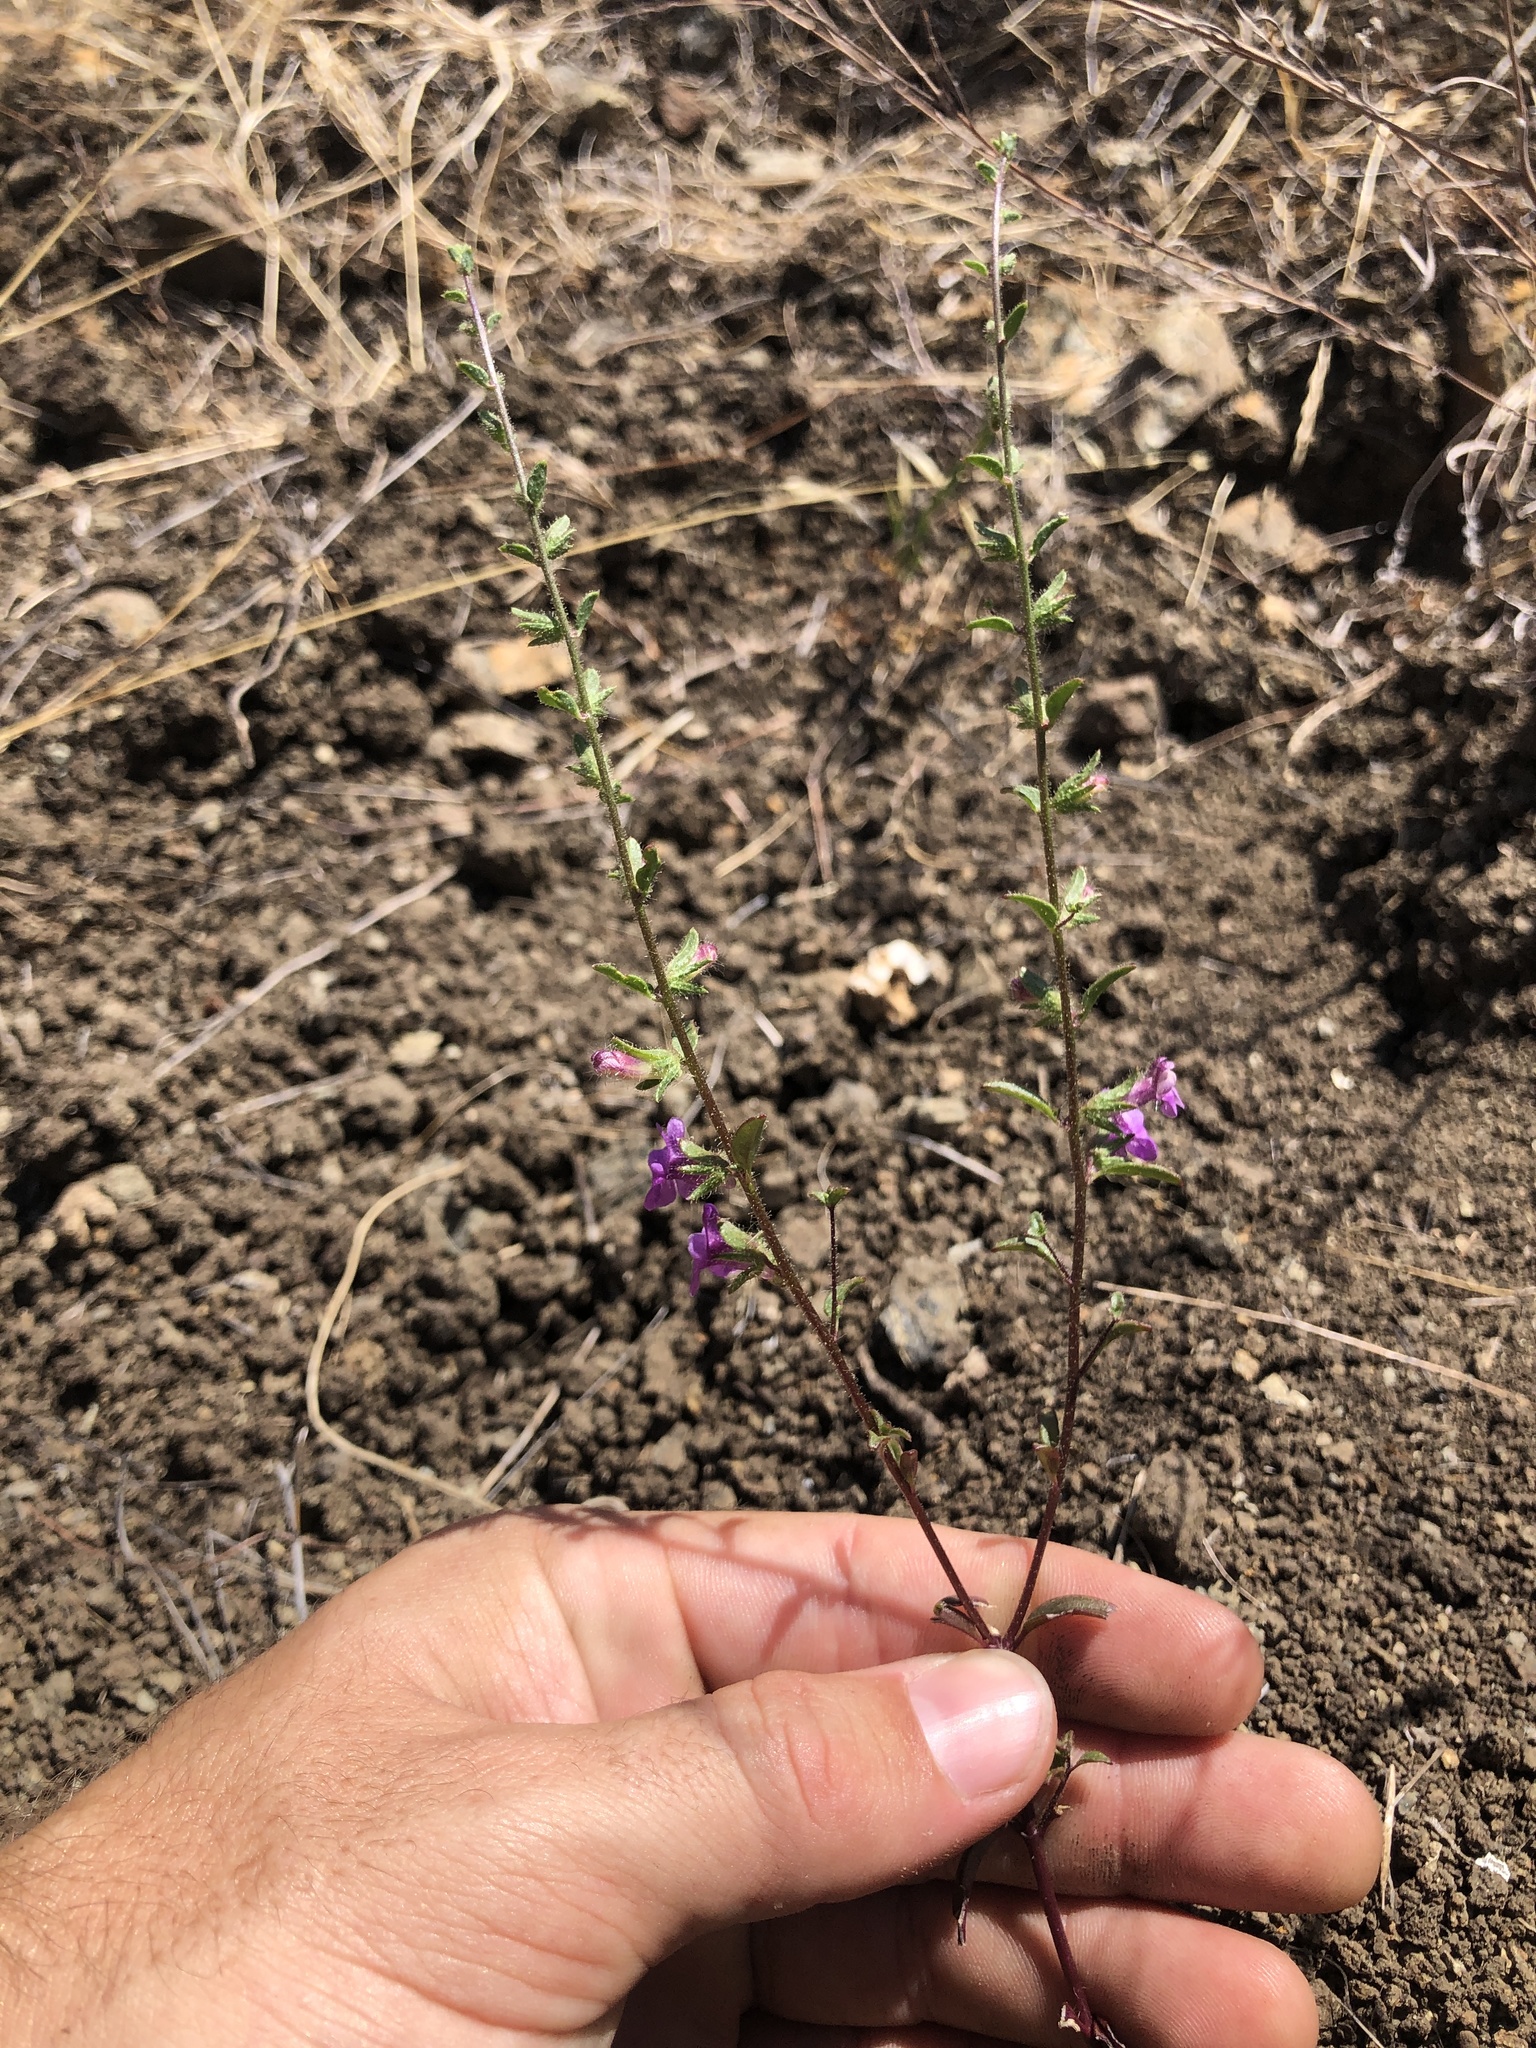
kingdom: Plantae
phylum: Tracheophyta
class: Magnoliopsida
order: Lamiales
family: Plantaginaceae
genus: Sairocarpus
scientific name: Sairocarpus vexillocalyculatus
